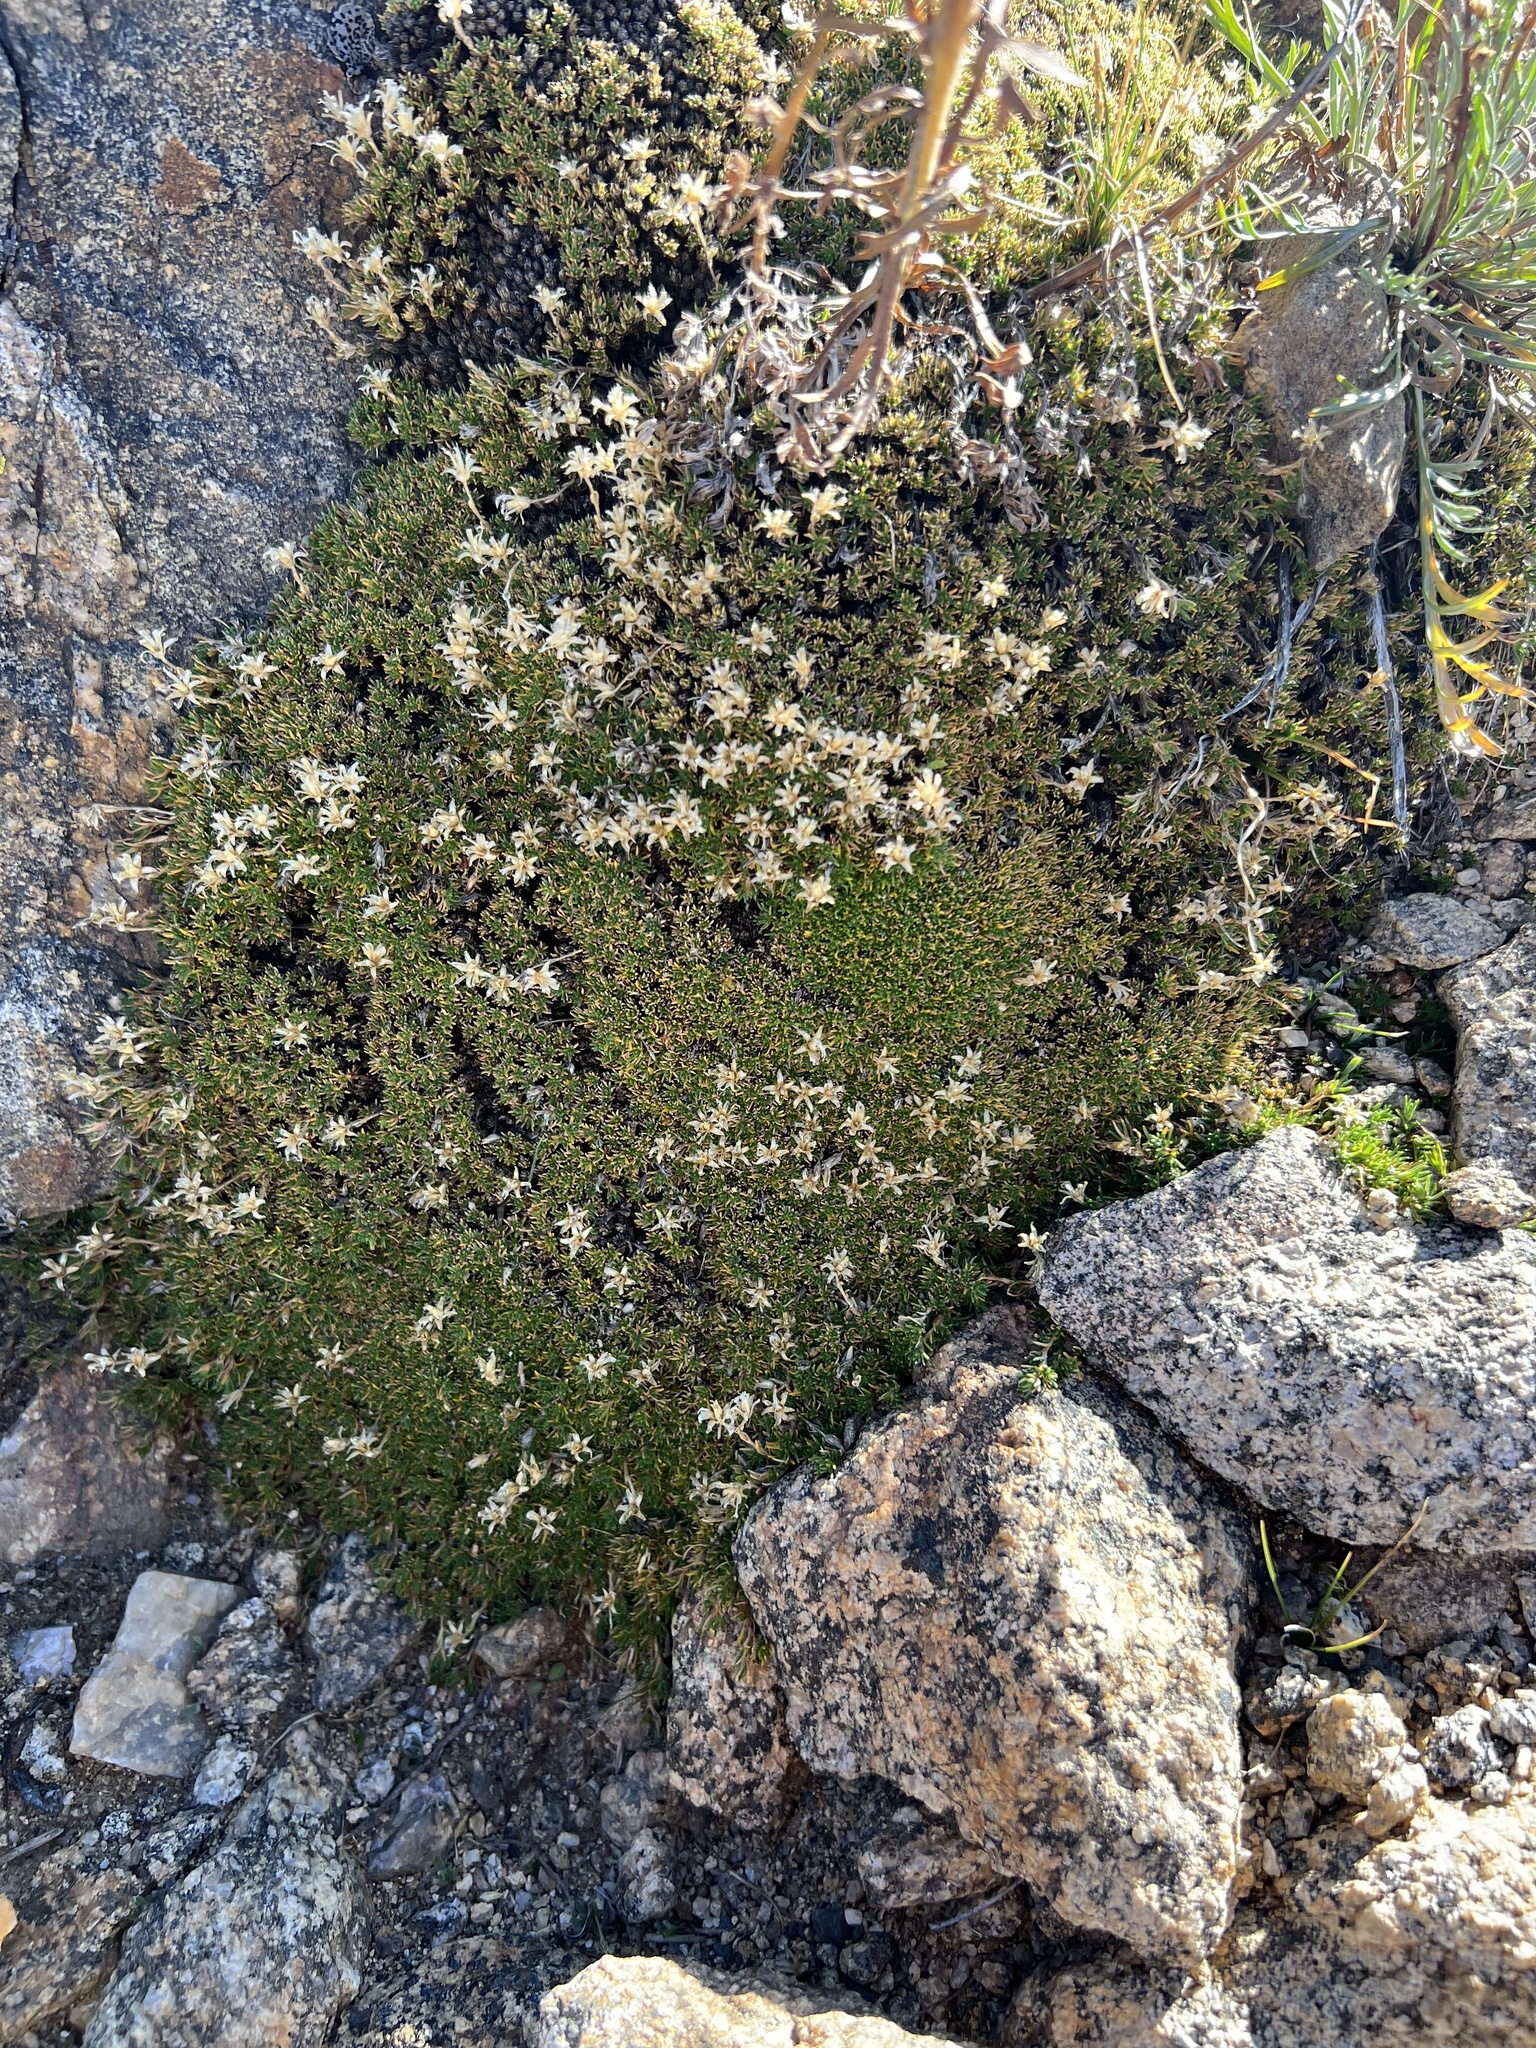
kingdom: Plantae
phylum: Tracheophyta
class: Magnoliopsida
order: Caryophyllales
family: Caryophyllaceae
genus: Cherleria
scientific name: Cherleria obtusiloba
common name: Alpine stitchwort
